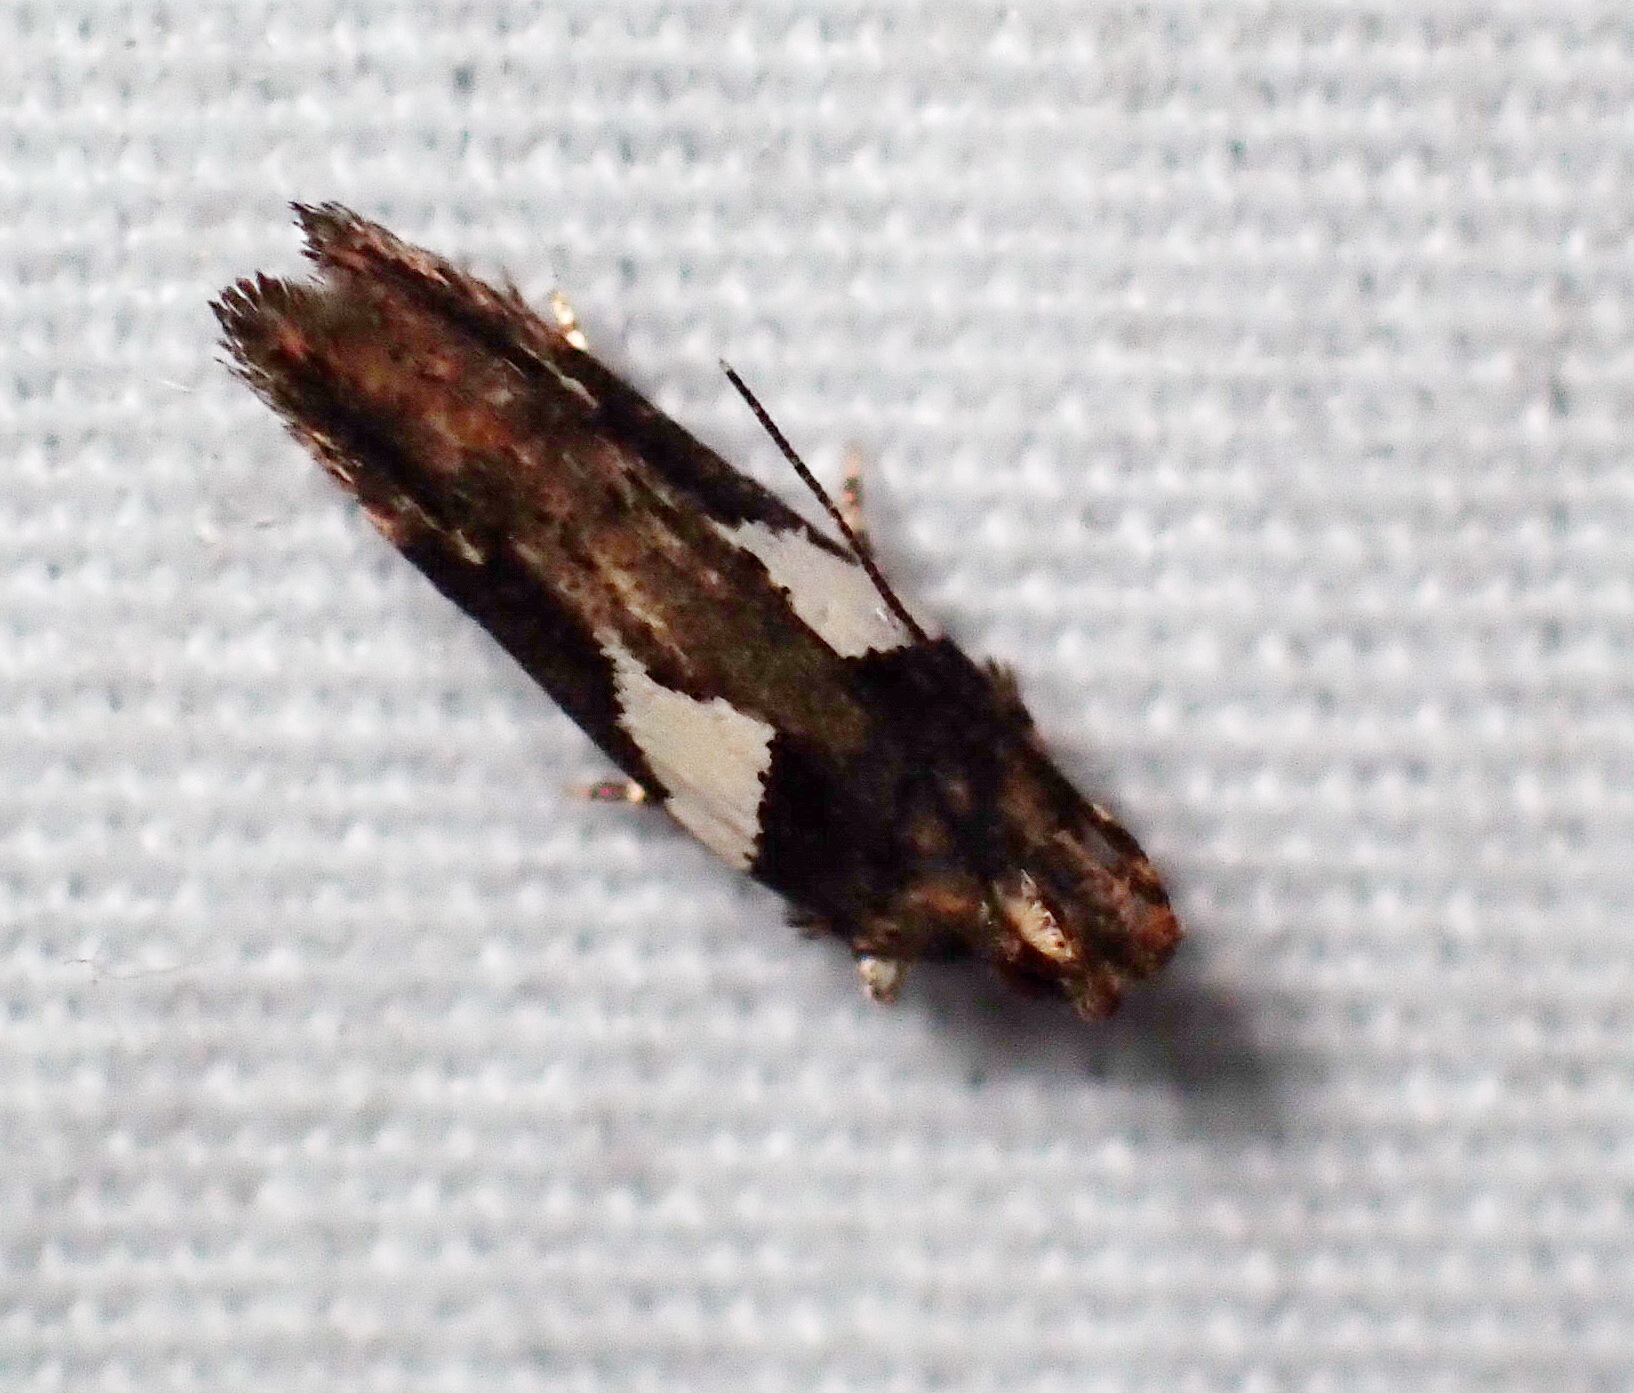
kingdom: Animalia
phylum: Arthropoda
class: Insecta
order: Lepidoptera
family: Gelechiidae
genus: Friseria
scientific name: Friseria acaciella
